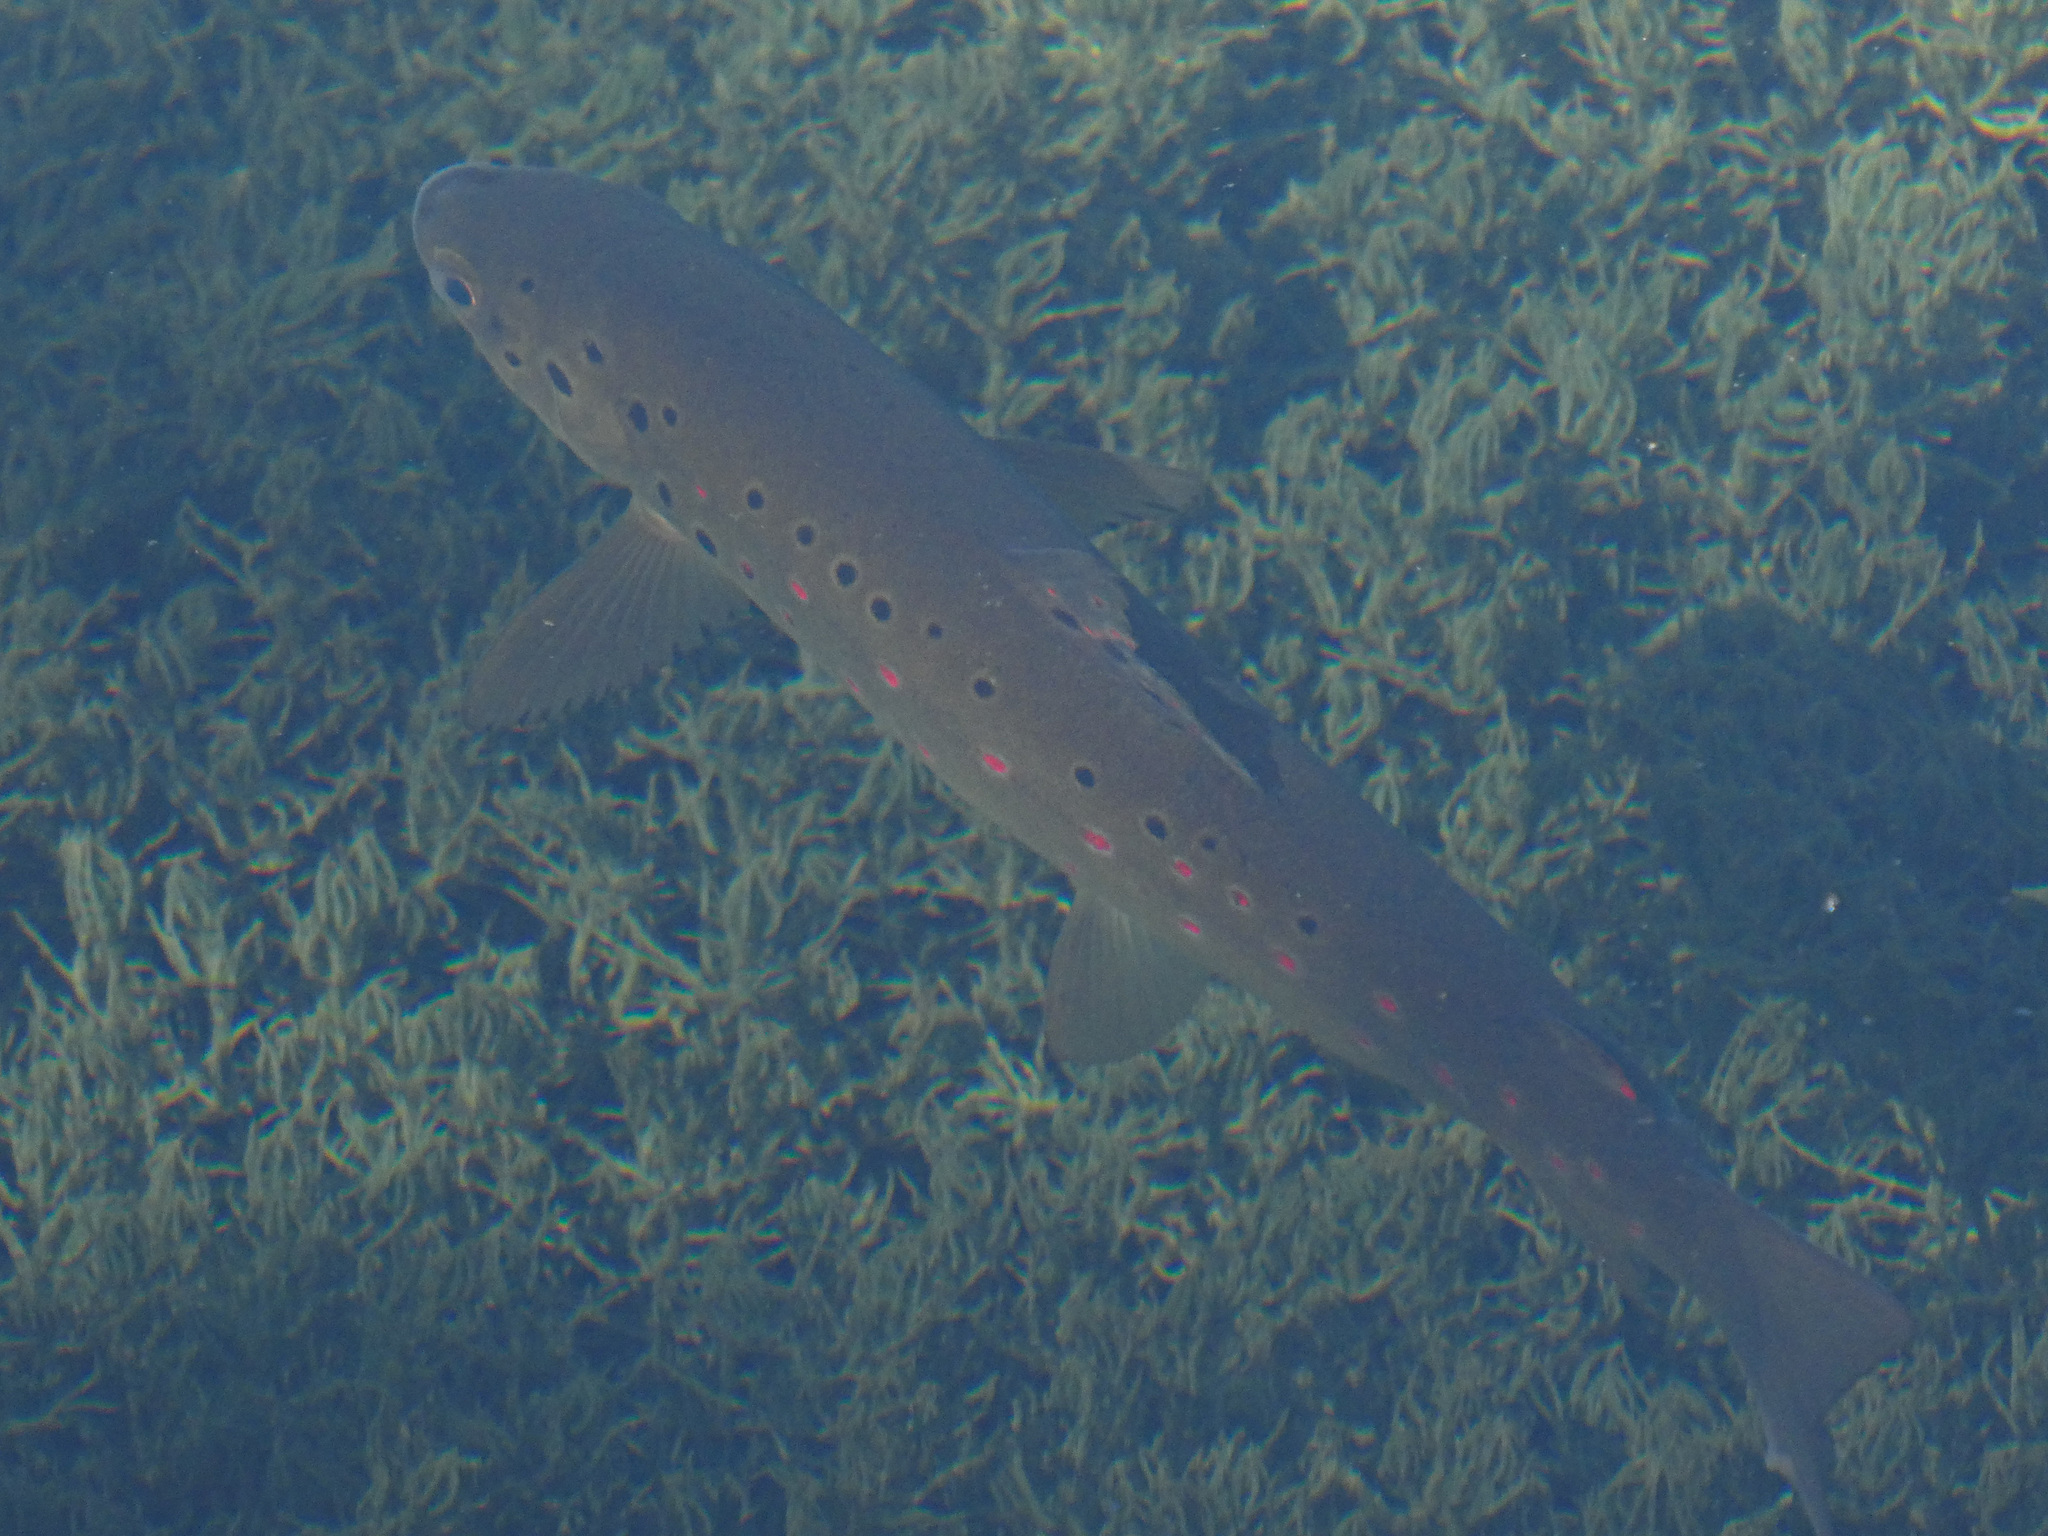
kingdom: Animalia
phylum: Chordata
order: Salmoniformes
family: Salmonidae
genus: Salmo
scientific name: Salmo trutta
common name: Brown trout
